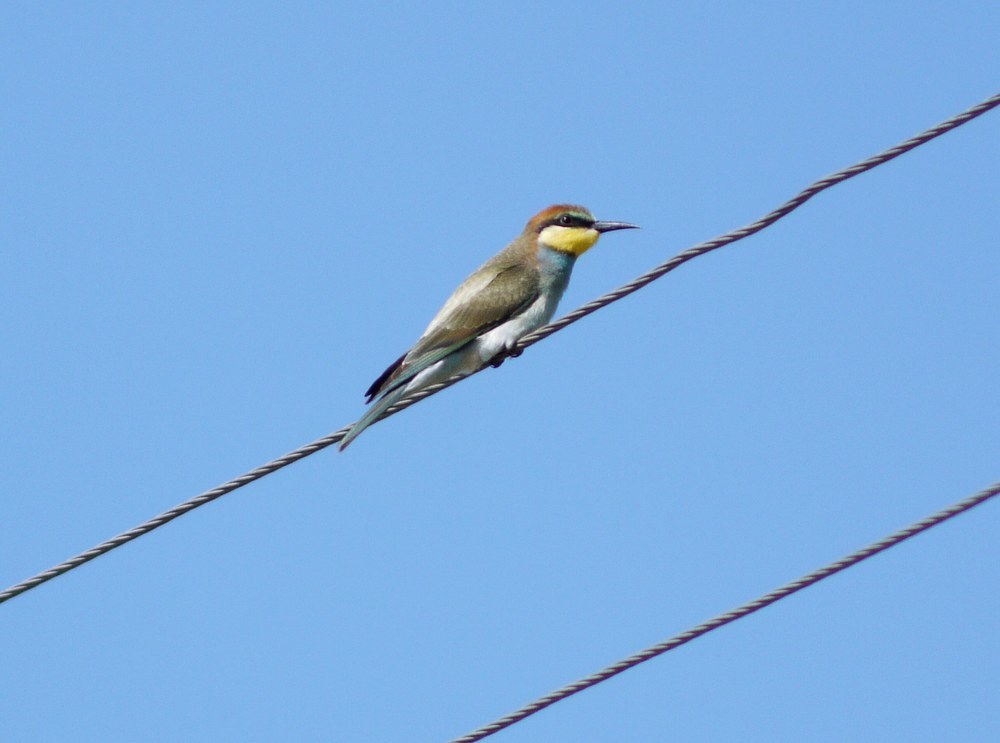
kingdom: Animalia
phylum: Chordata
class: Aves
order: Coraciiformes
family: Meropidae
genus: Merops
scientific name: Merops apiaster
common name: European bee-eater
